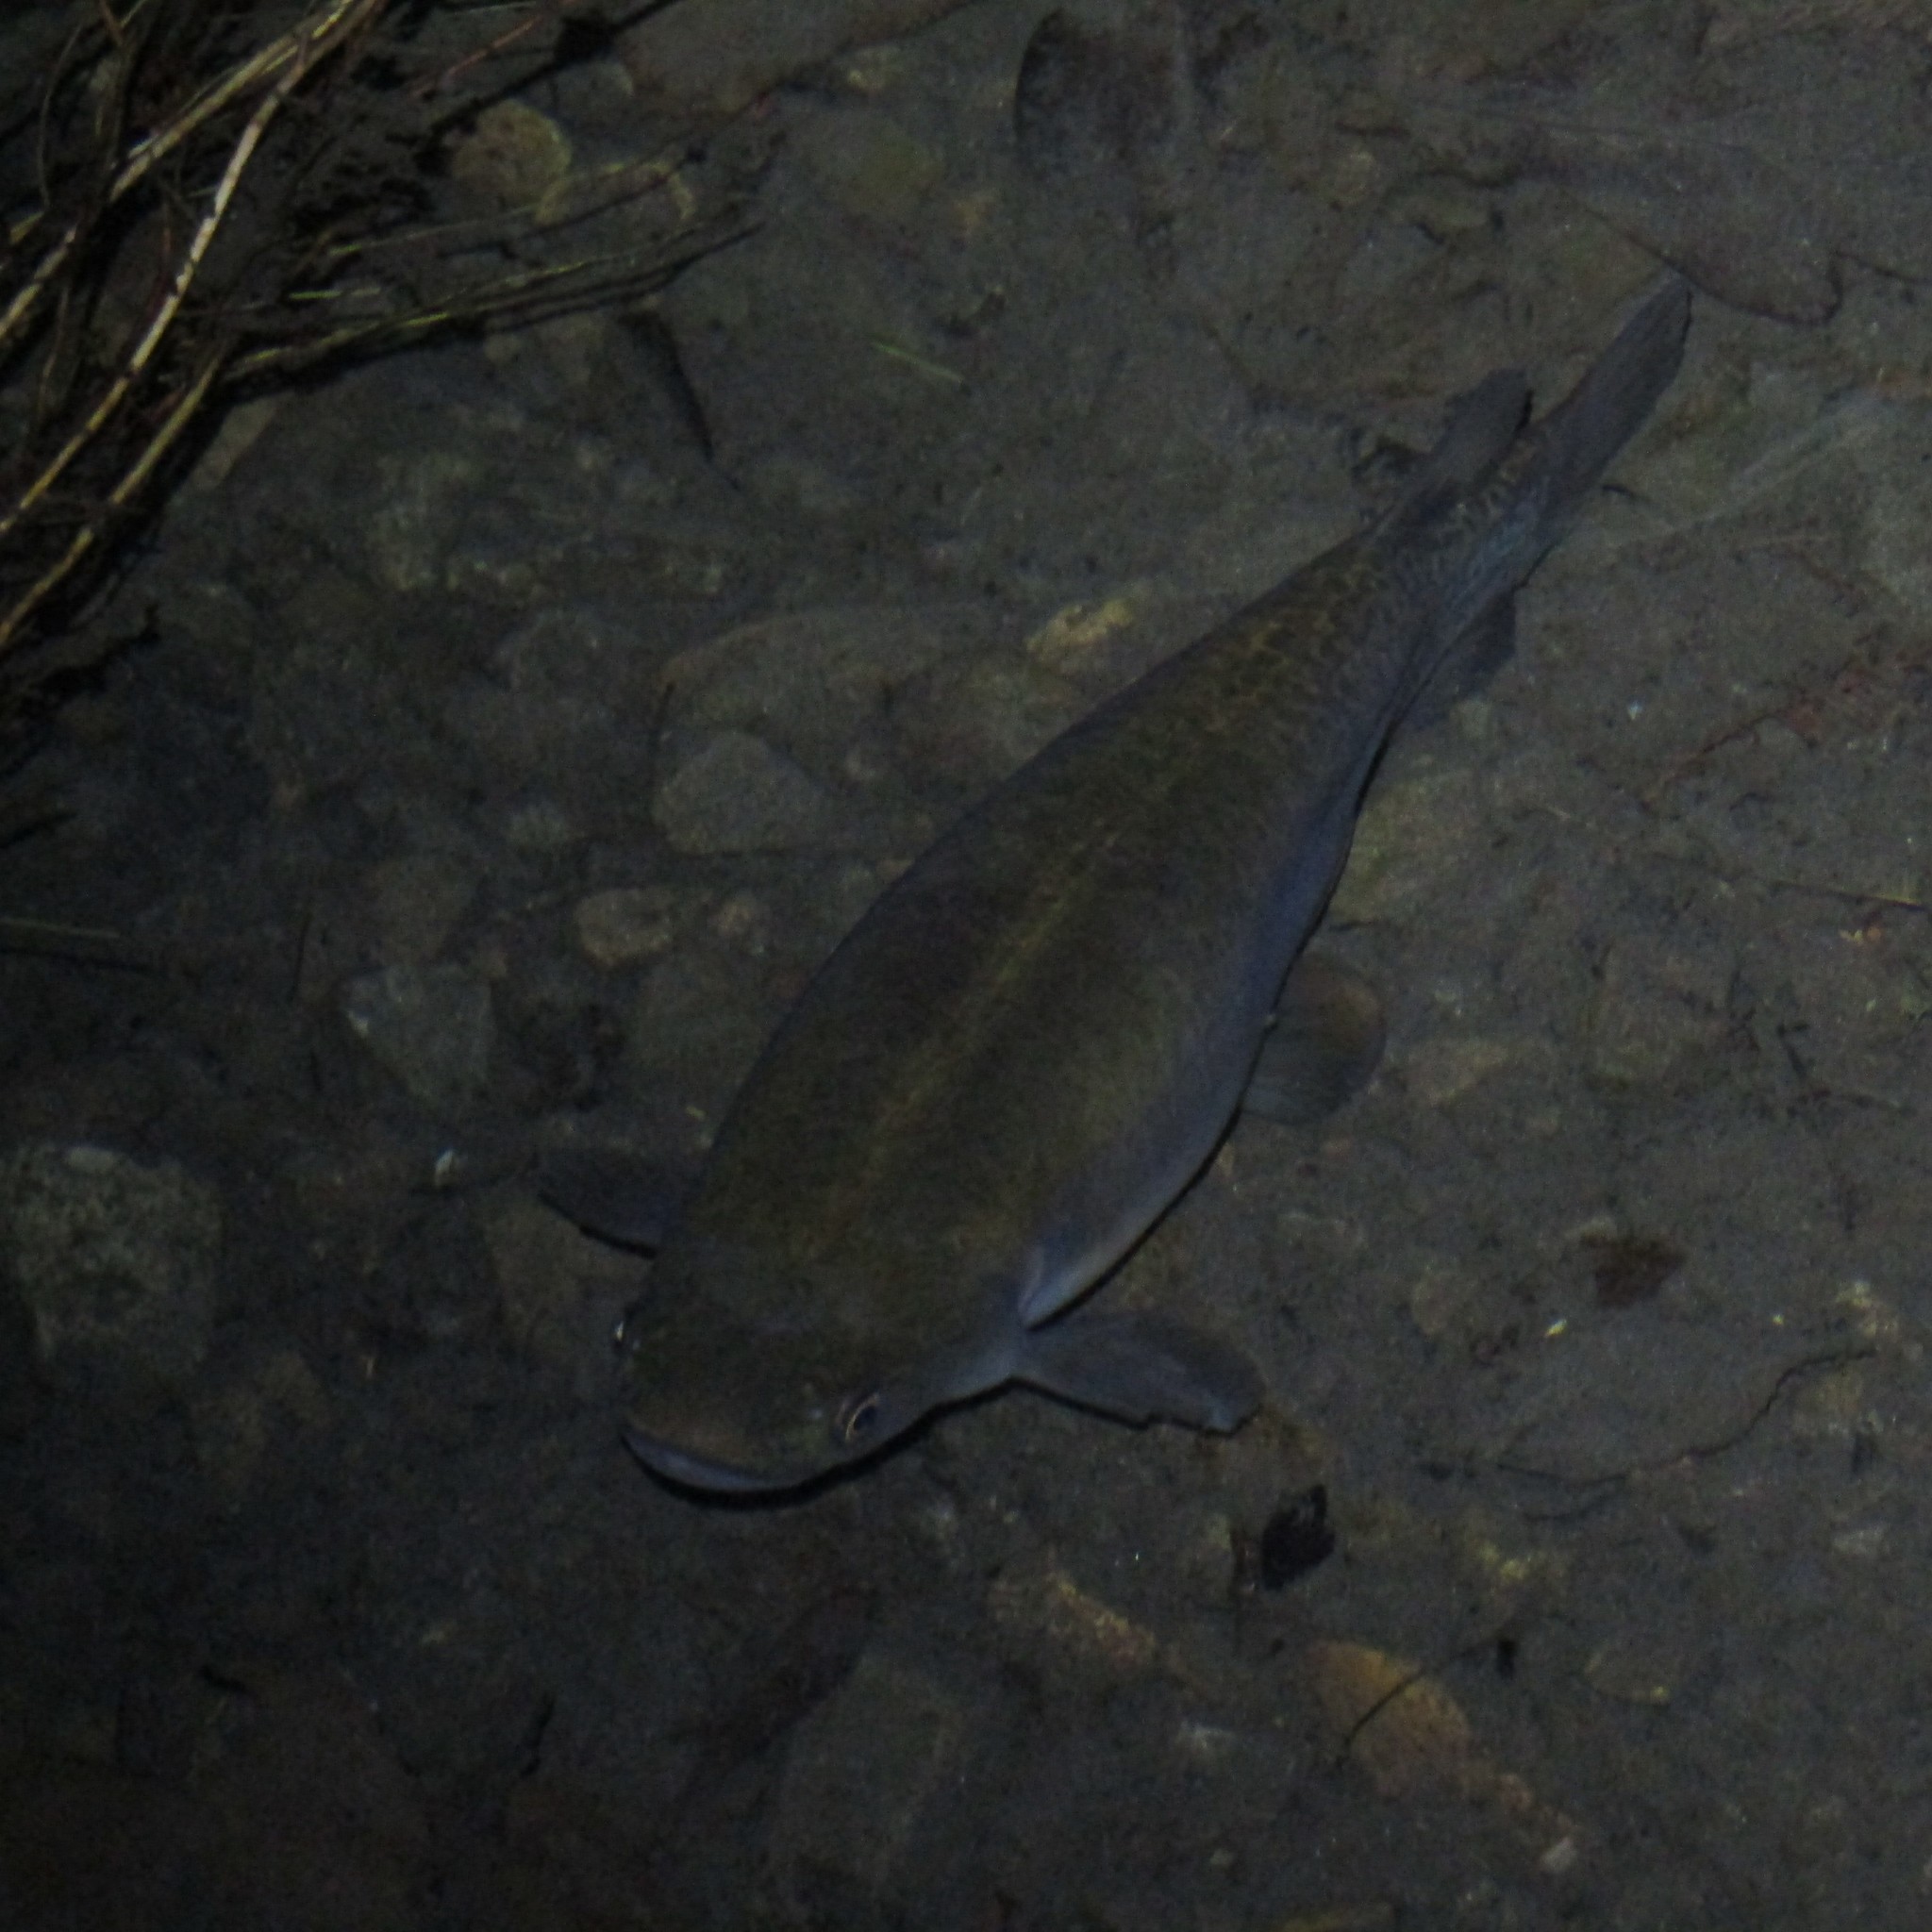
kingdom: Animalia
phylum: Chordata
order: Osmeriformes
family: Galaxiidae
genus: Galaxias
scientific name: Galaxias fasciatus
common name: Banded kokopu
